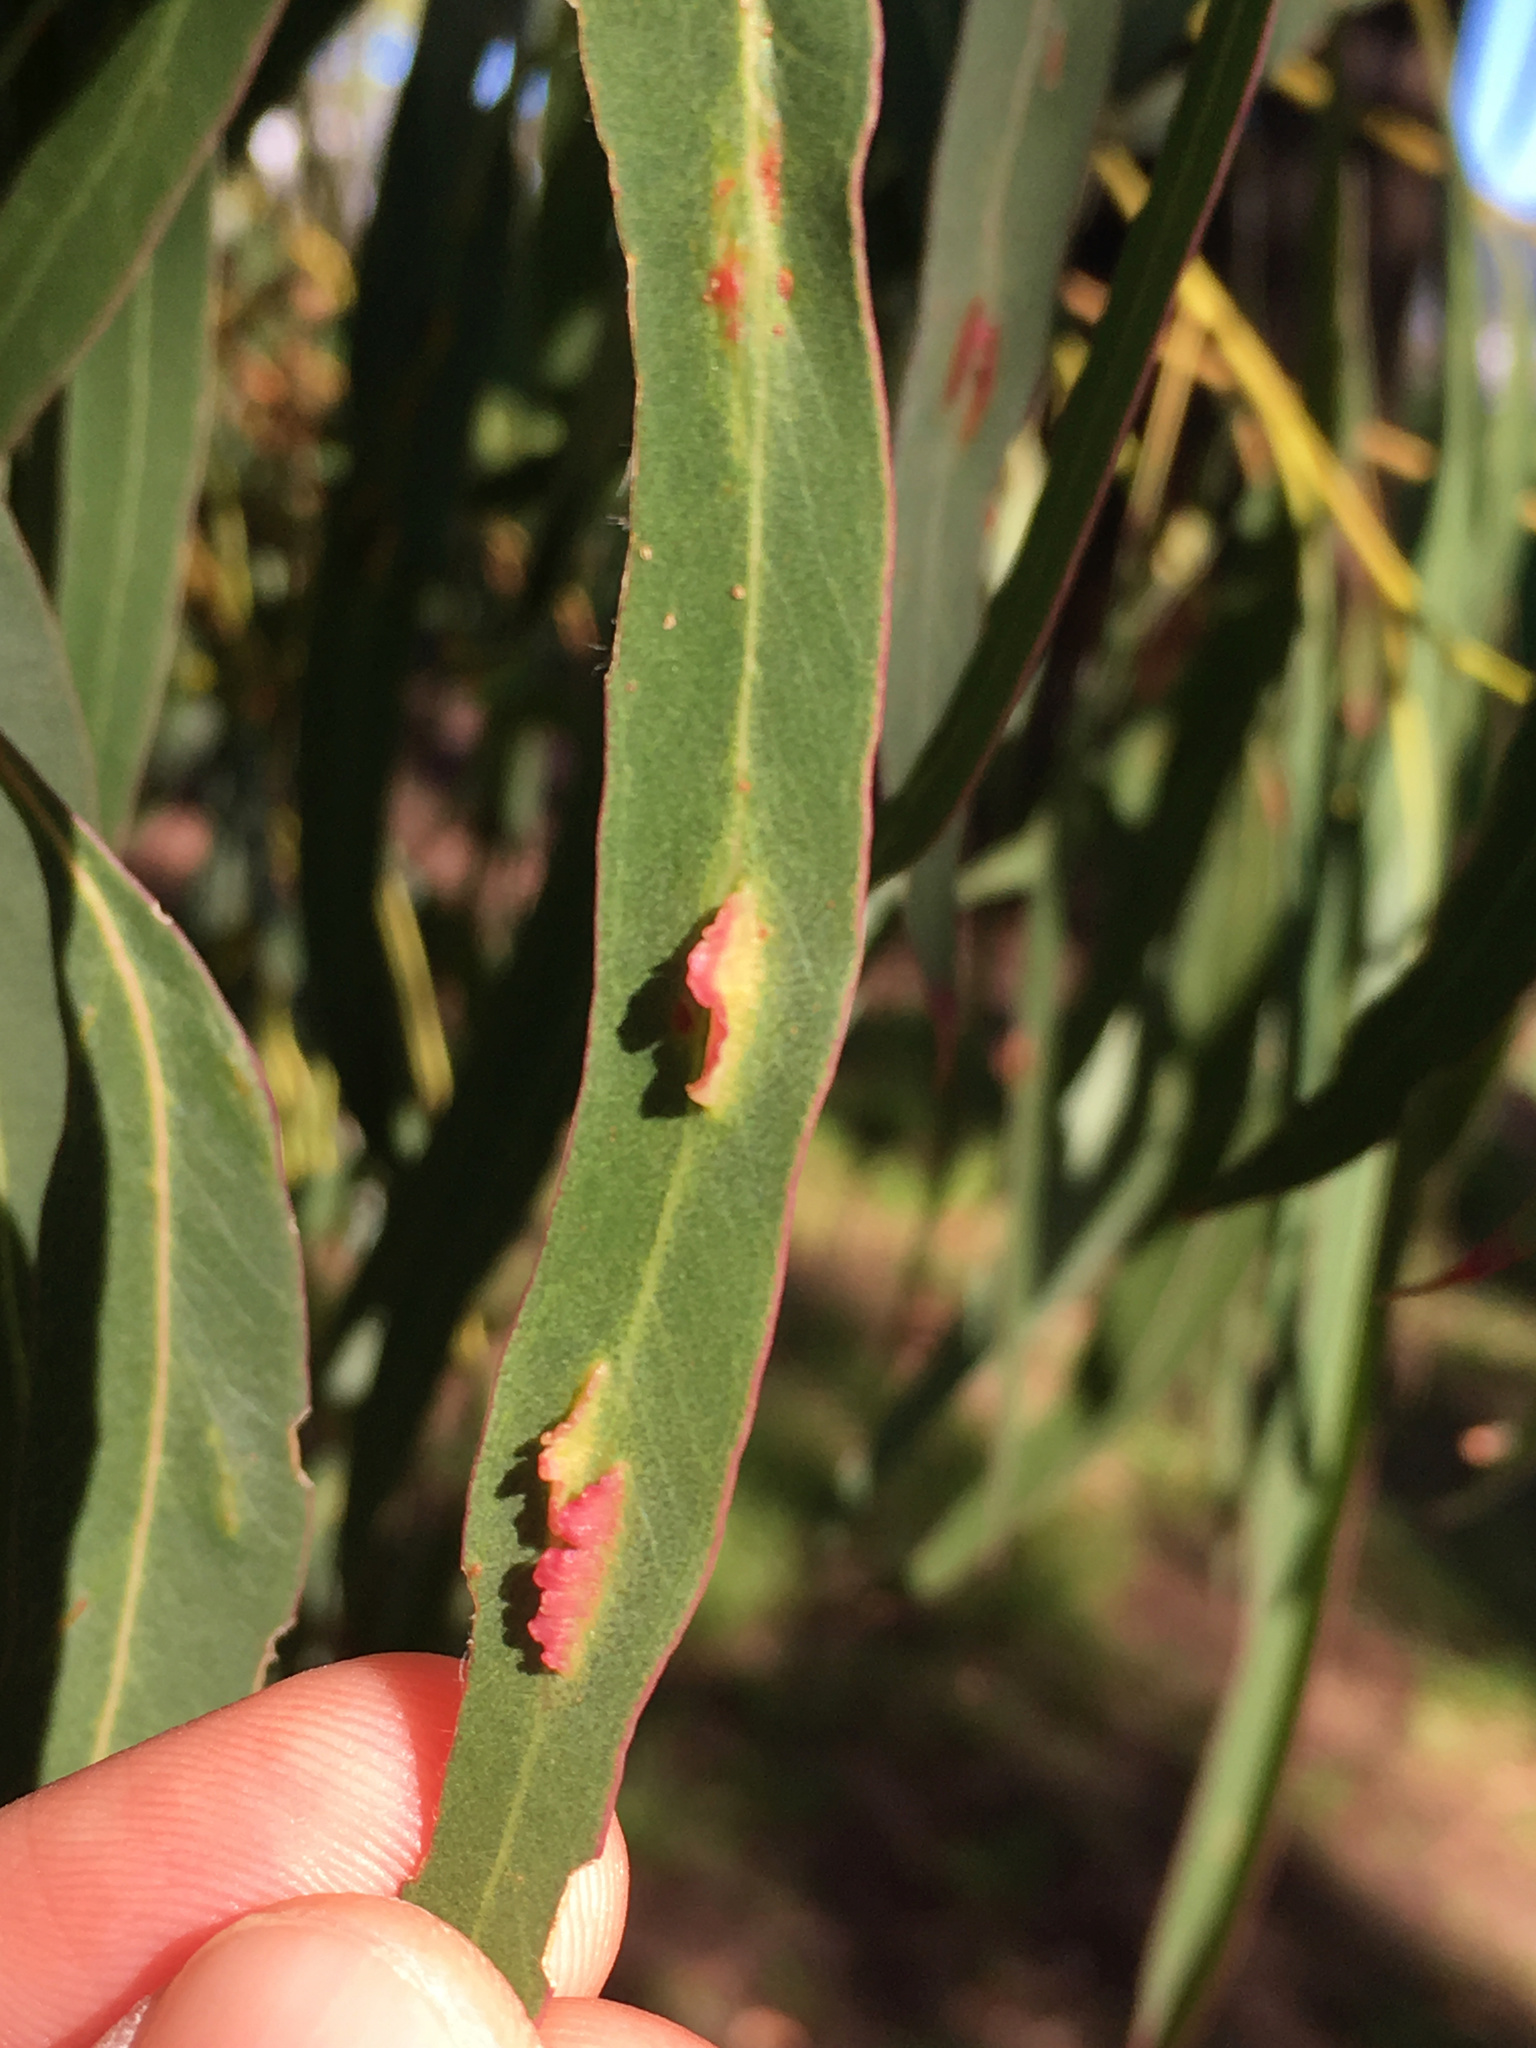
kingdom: Animalia
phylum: Arthropoda
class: Insecta
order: Hymenoptera
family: Pteromalidae
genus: Nambouria
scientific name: Nambouria xanthops
